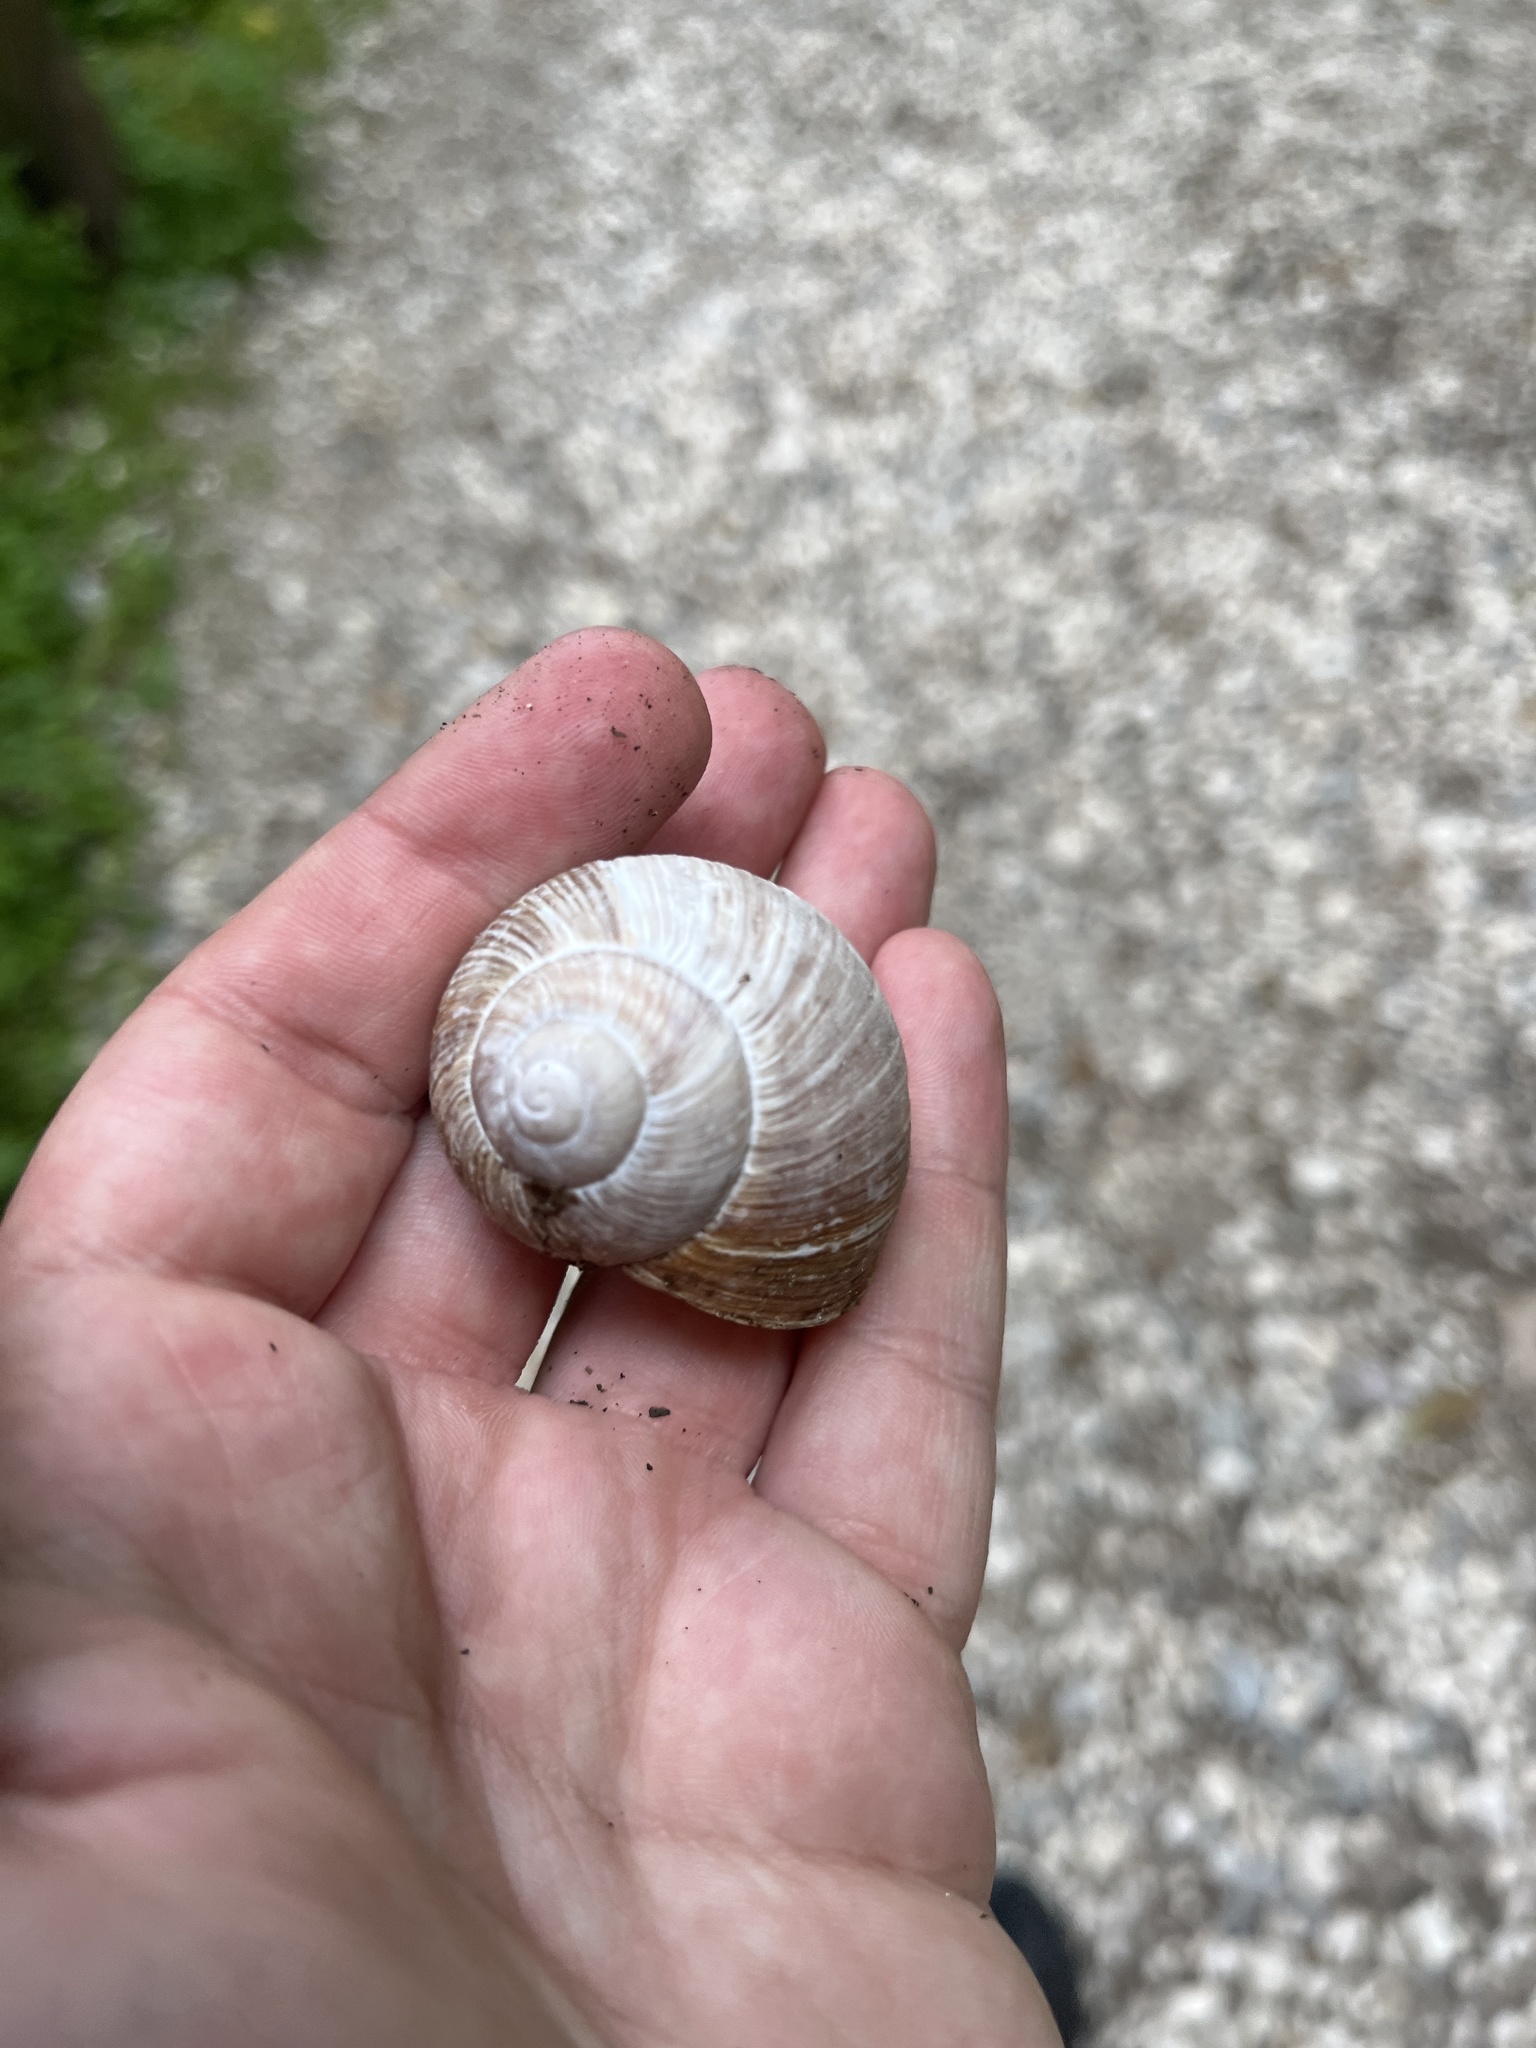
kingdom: Animalia
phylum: Mollusca
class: Gastropoda
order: Stylommatophora
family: Helicidae
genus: Helix
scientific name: Helix pomatia
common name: Roman snail
